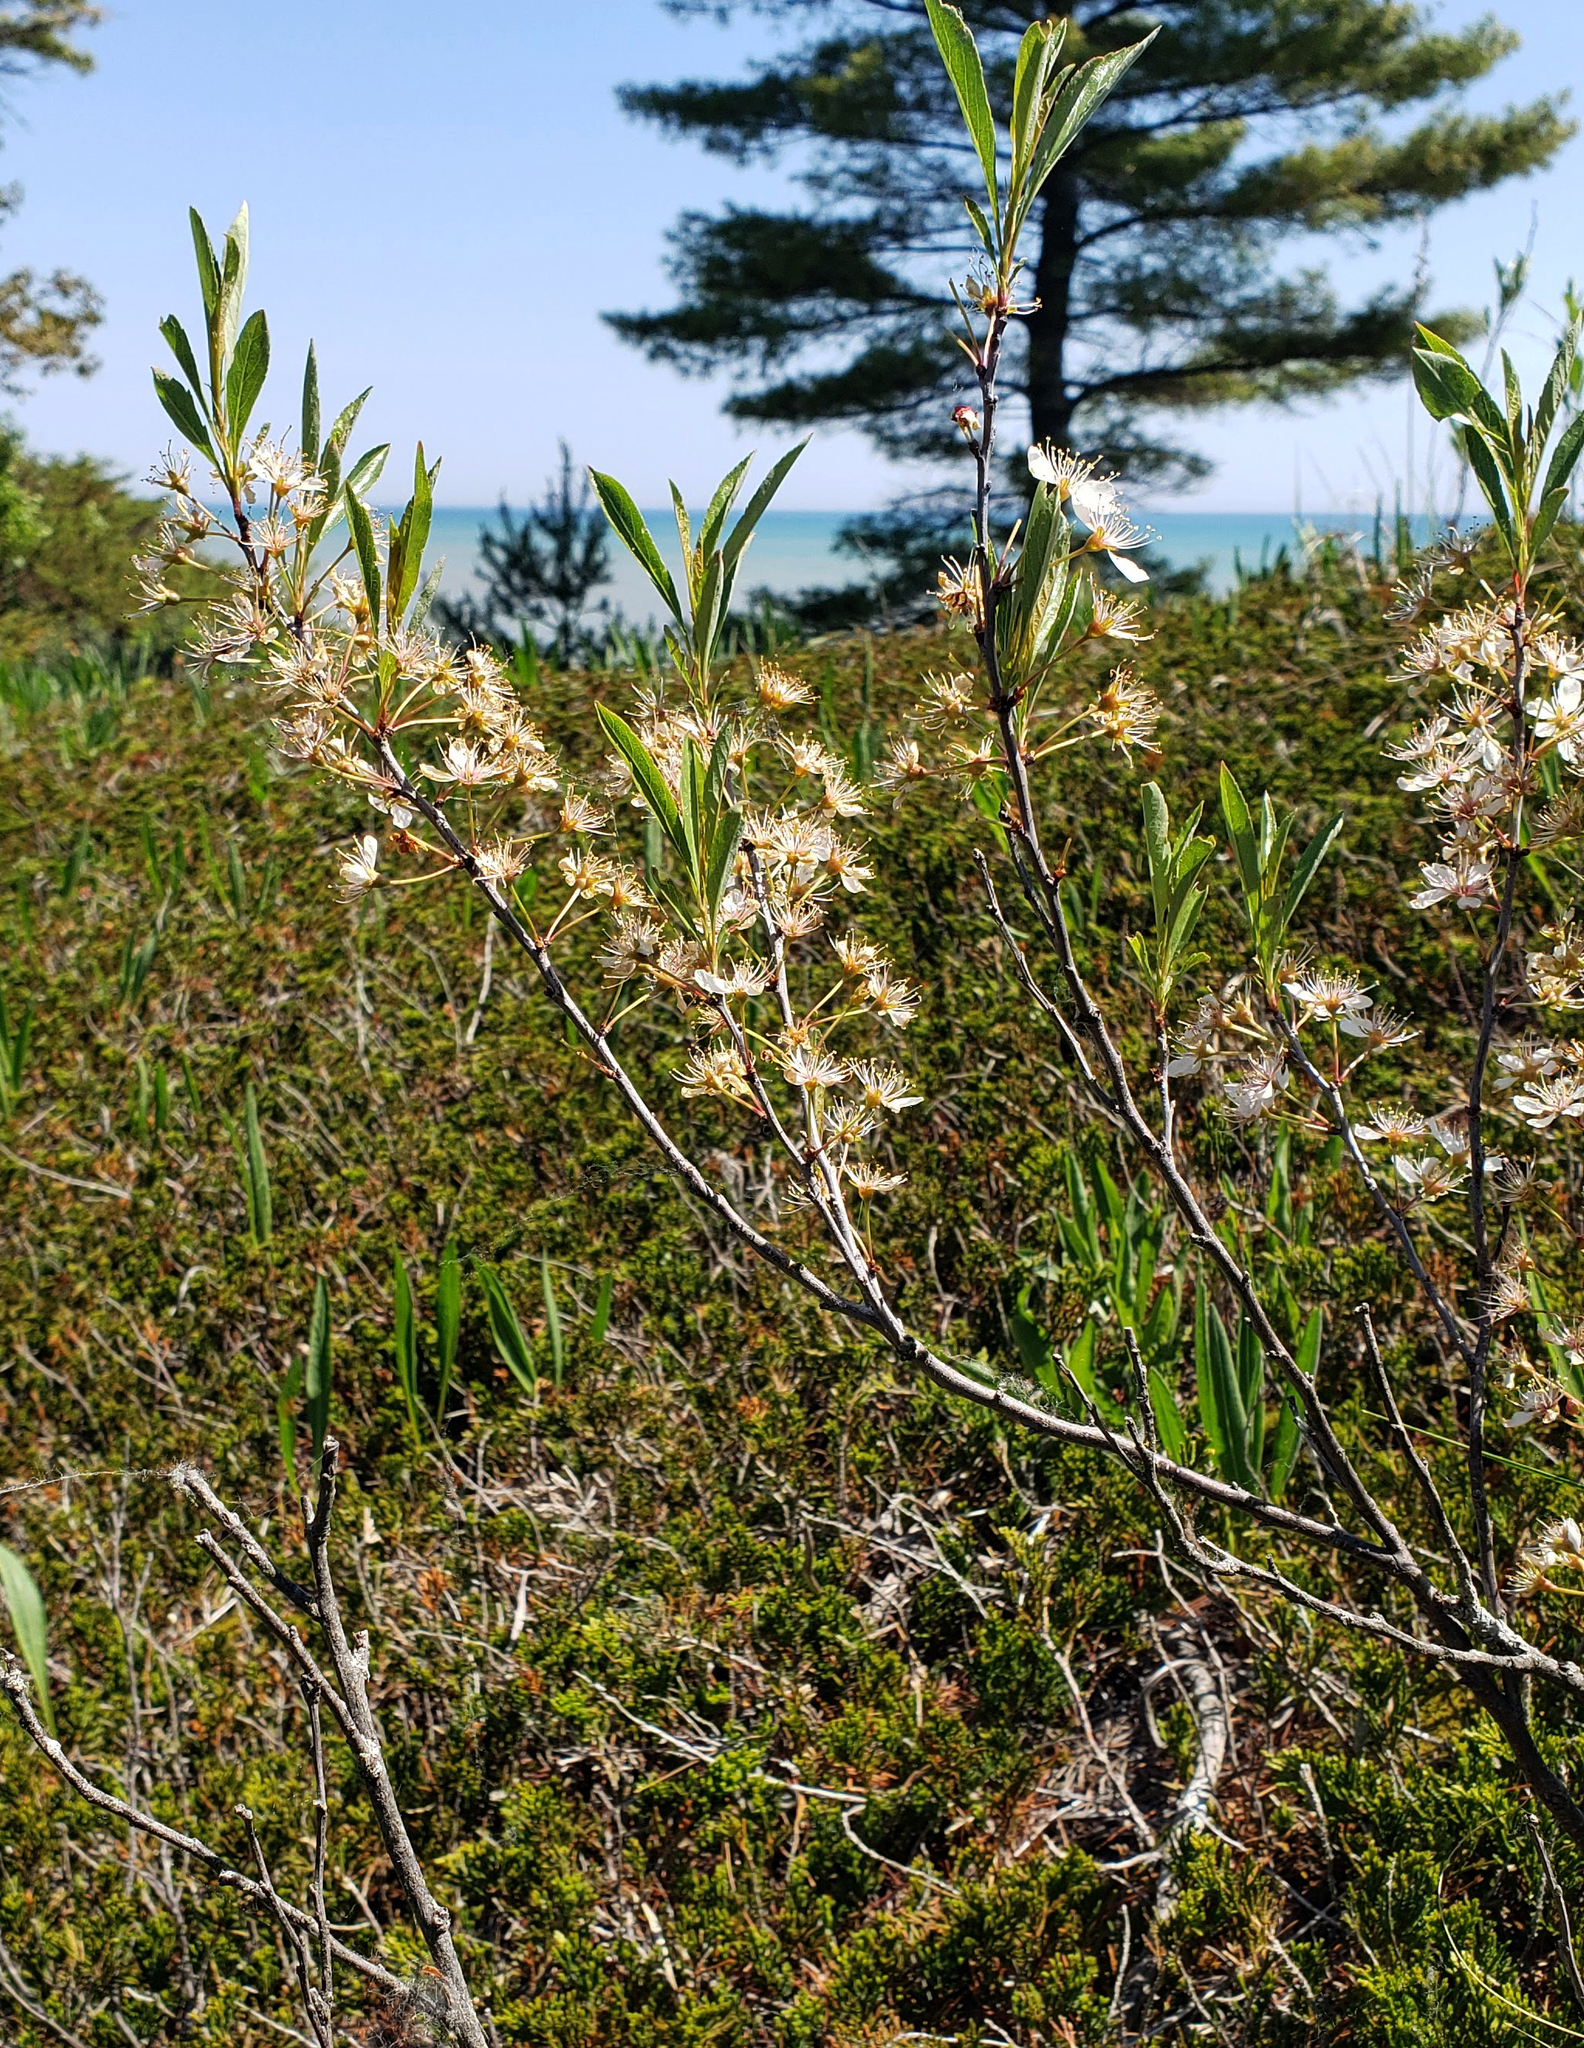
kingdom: Plantae
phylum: Tracheophyta
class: Magnoliopsida
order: Rosales
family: Rosaceae
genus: Prunus
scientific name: Prunus pumila
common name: Dwarf cherry
